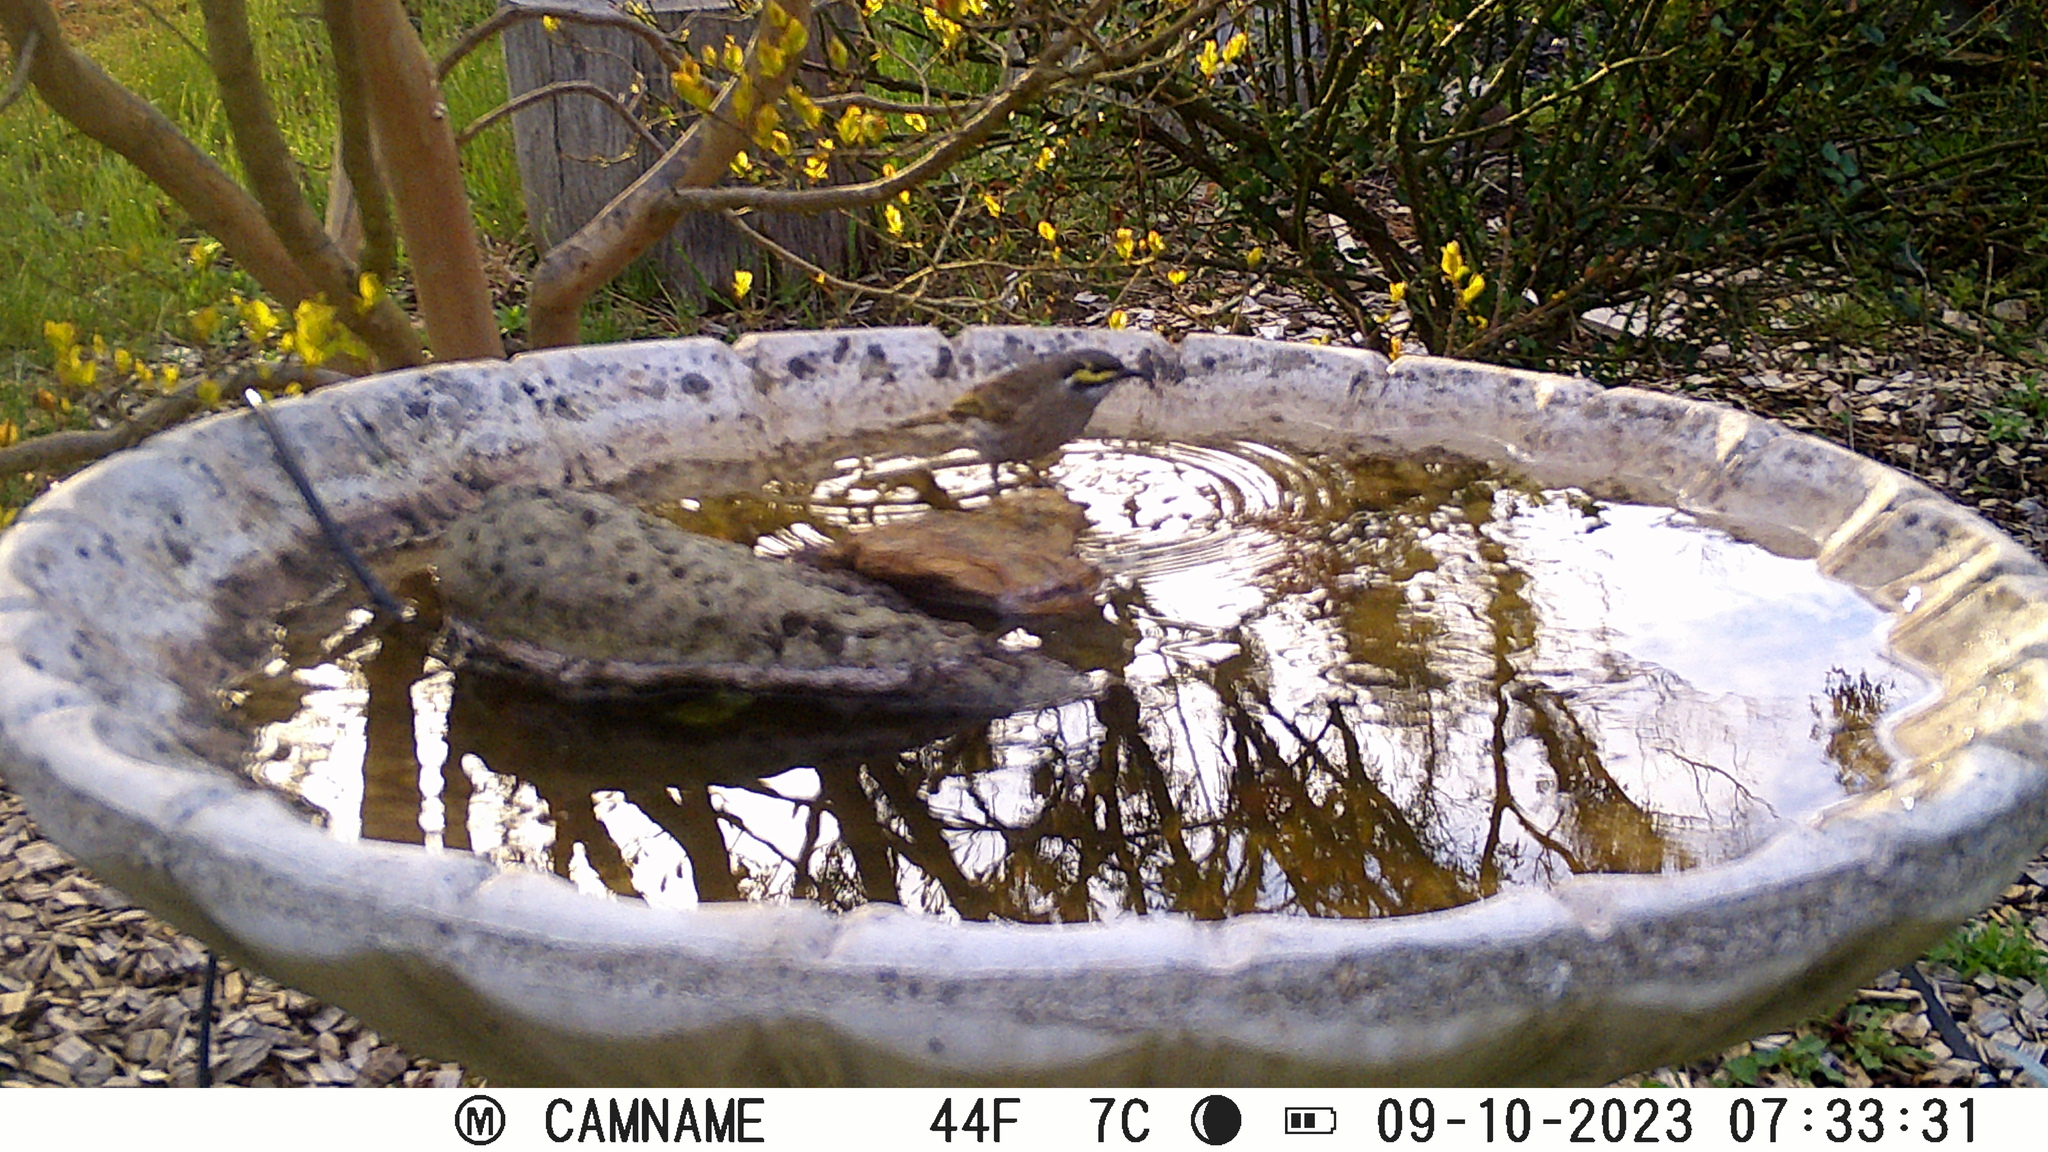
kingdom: Animalia
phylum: Chordata
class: Aves
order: Passeriformes
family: Meliphagidae
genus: Caligavis
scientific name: Caligavis chrysops
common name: Yellow-faced honeyeater
